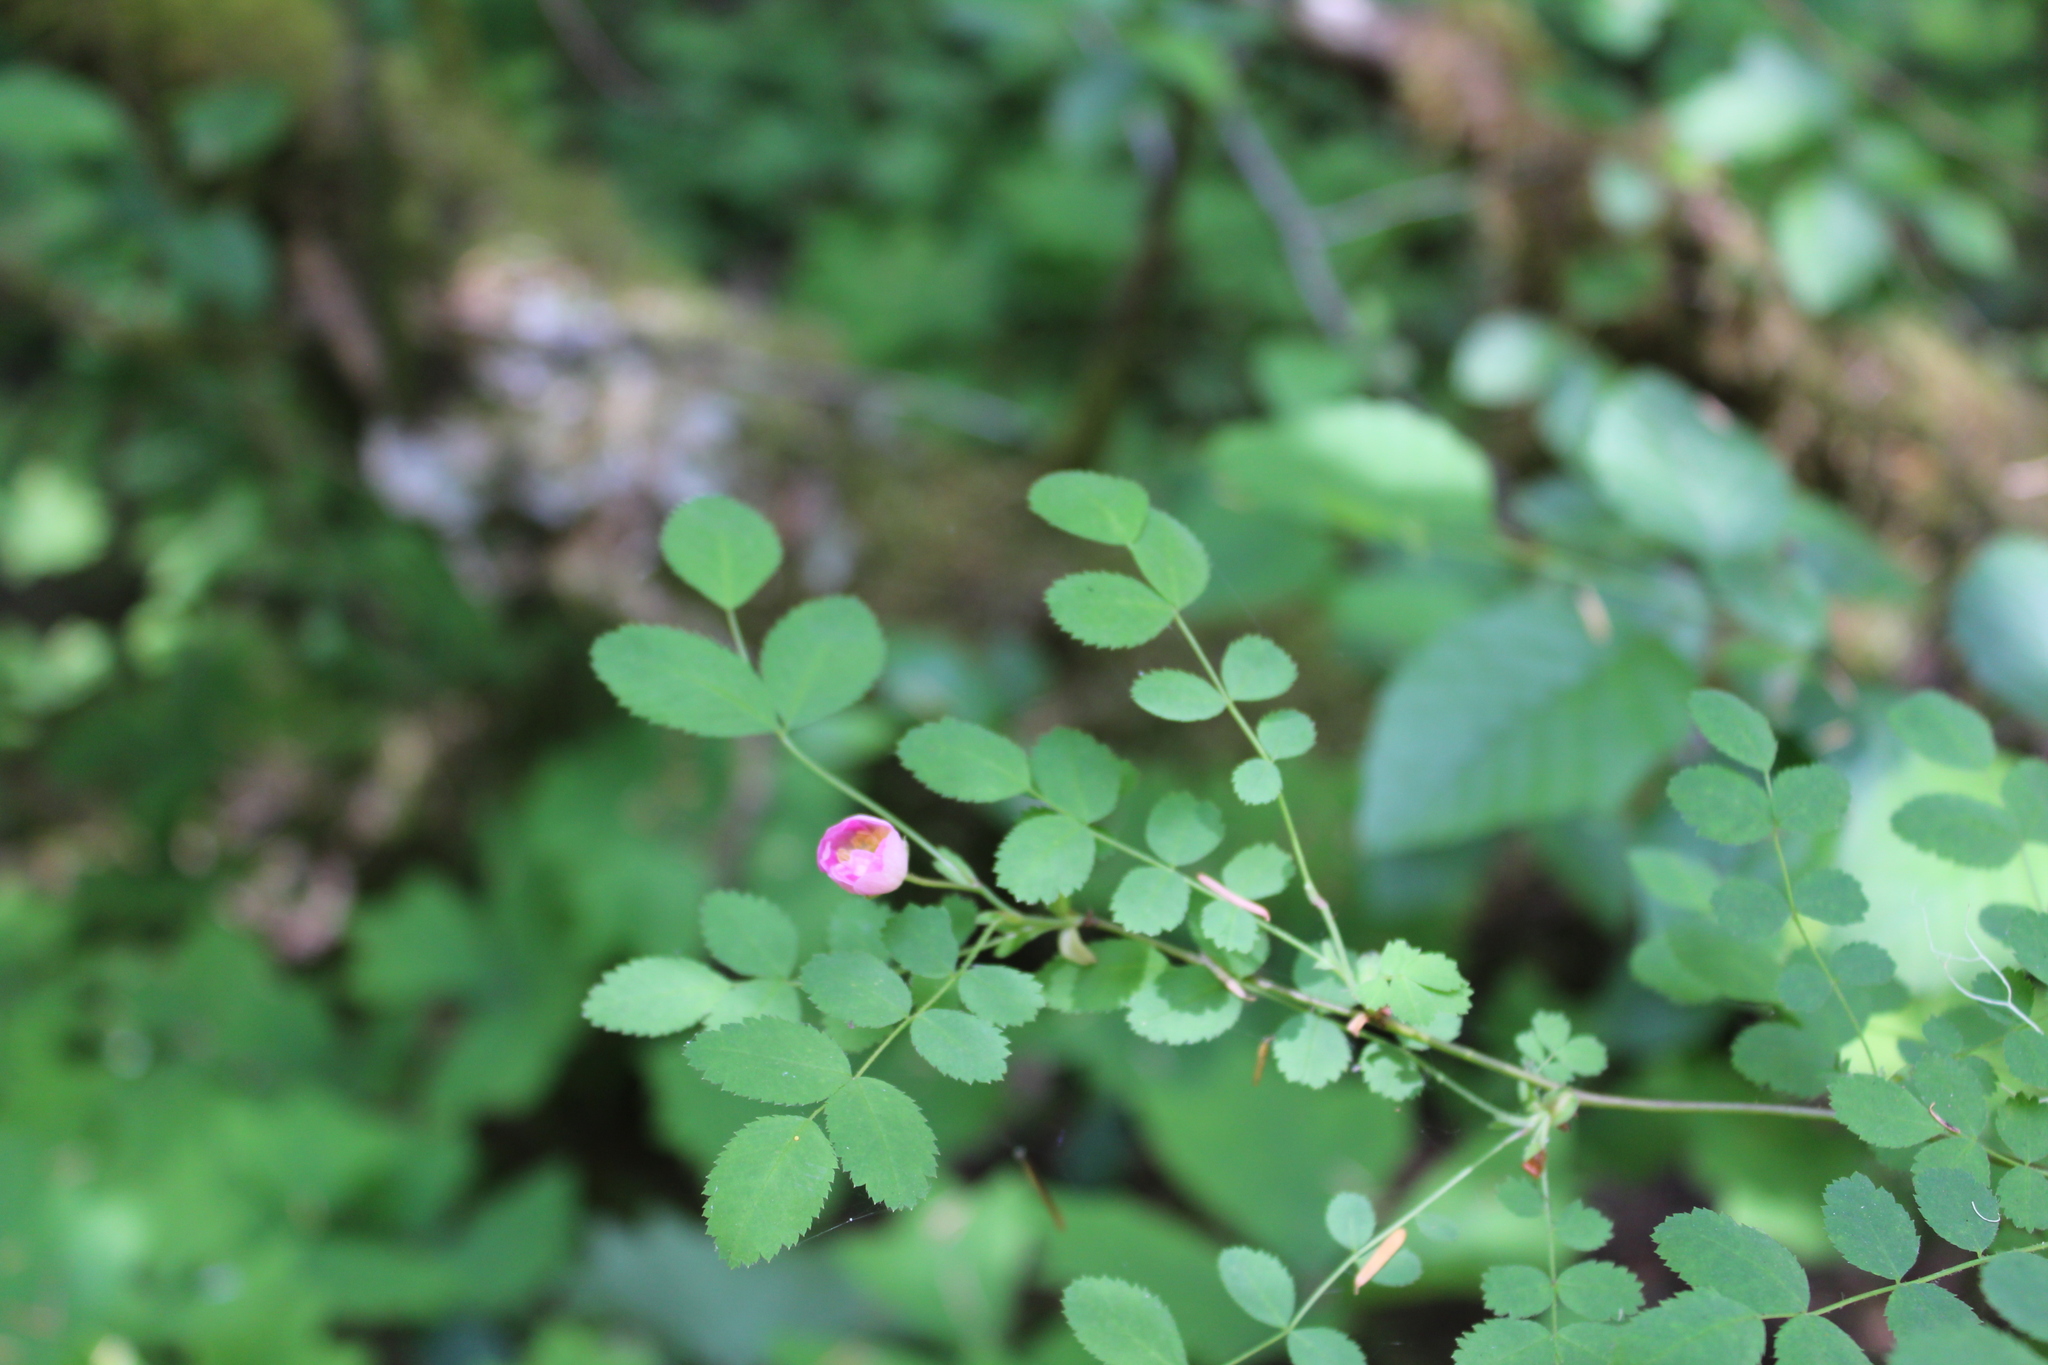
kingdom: Plantae
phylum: Tracheophyta
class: Magnoliopsida
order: Rosales
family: Rosaceae
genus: Rosa
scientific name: Rosa gymnocarpa
